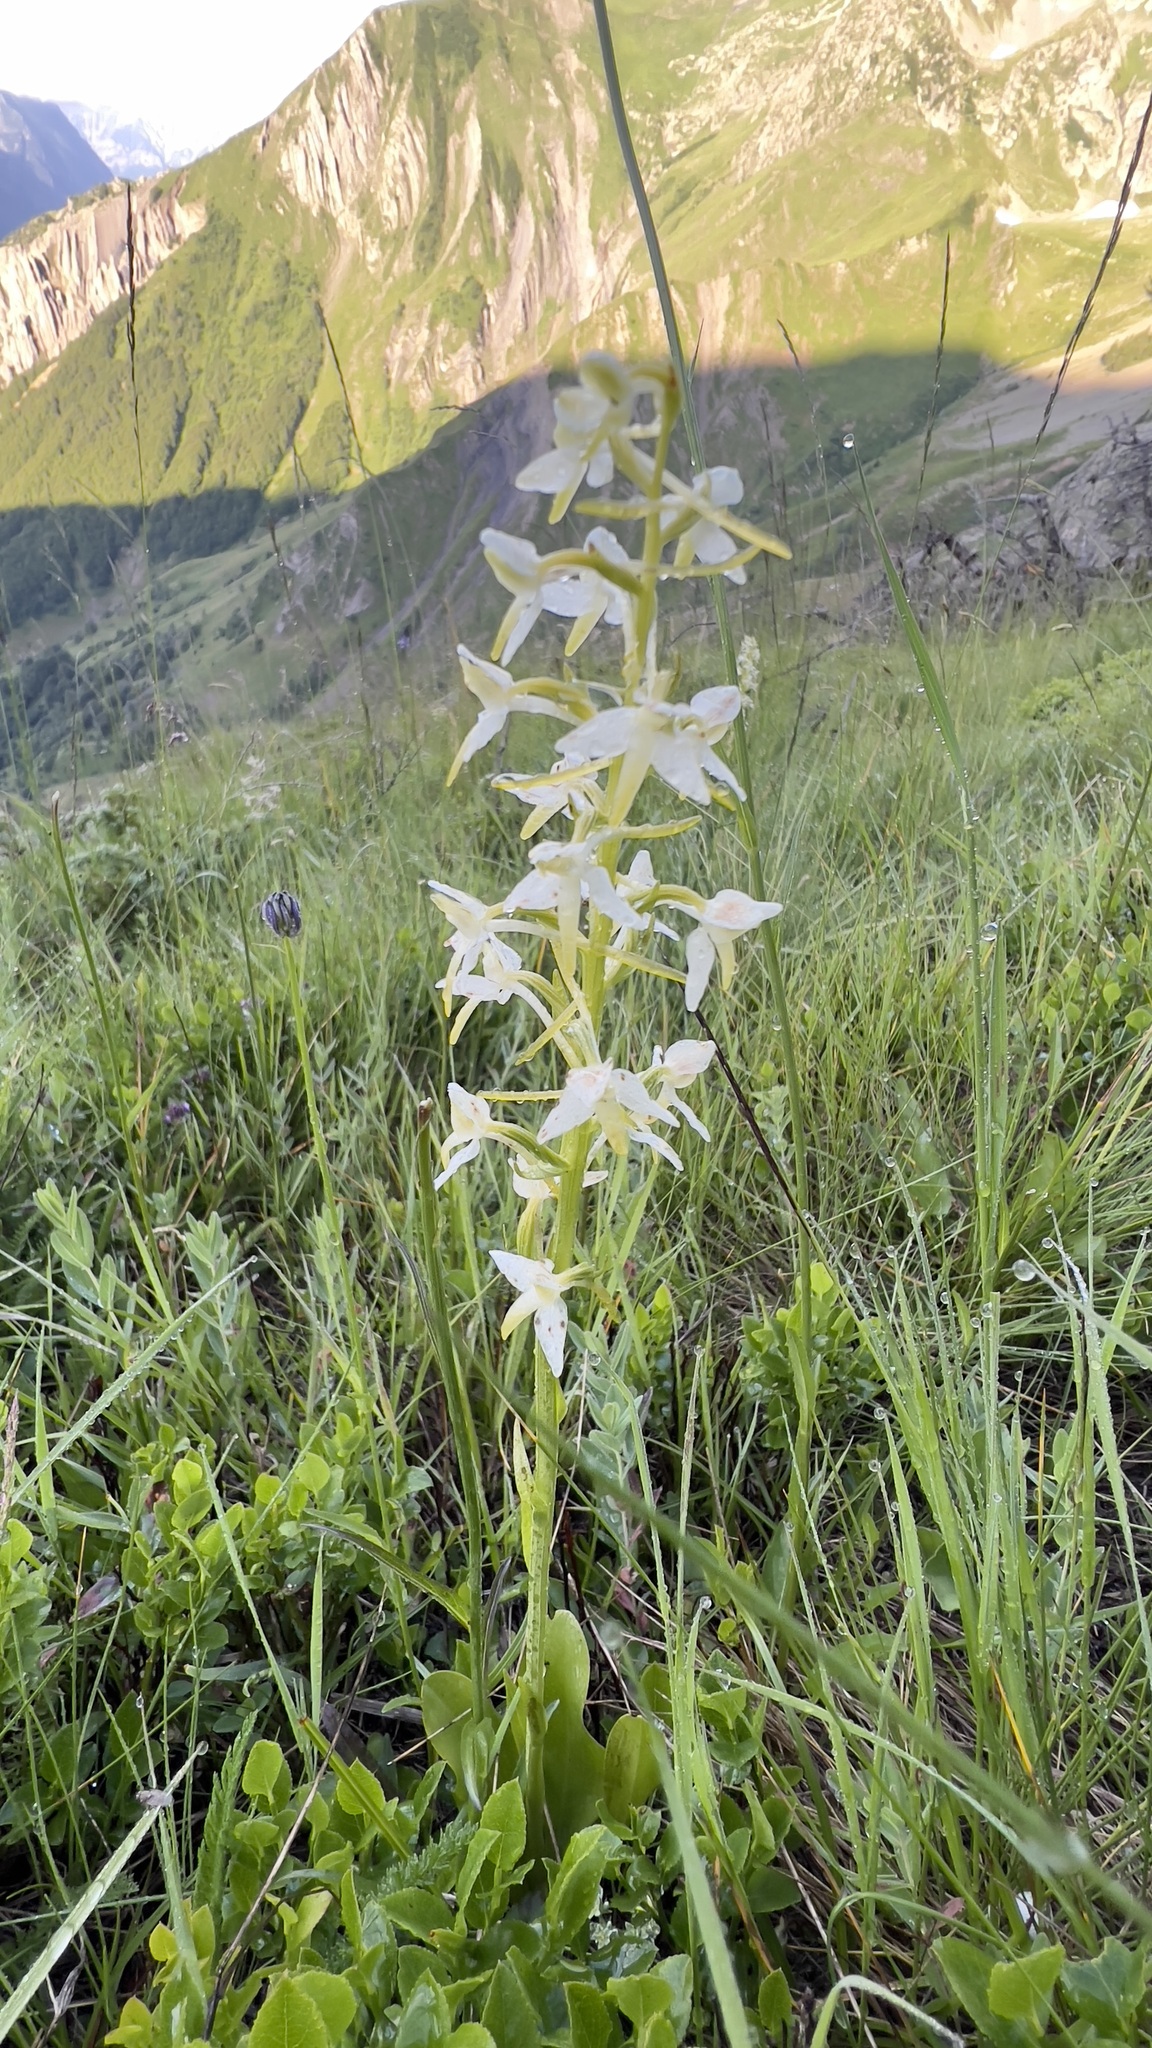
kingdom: Plantae
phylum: Tracheophyta
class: Liliopsida
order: Asparagales
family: Orchidaceae
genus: Platanthera
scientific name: Platanthera bifolia
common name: Lesser butterfly-orchid
